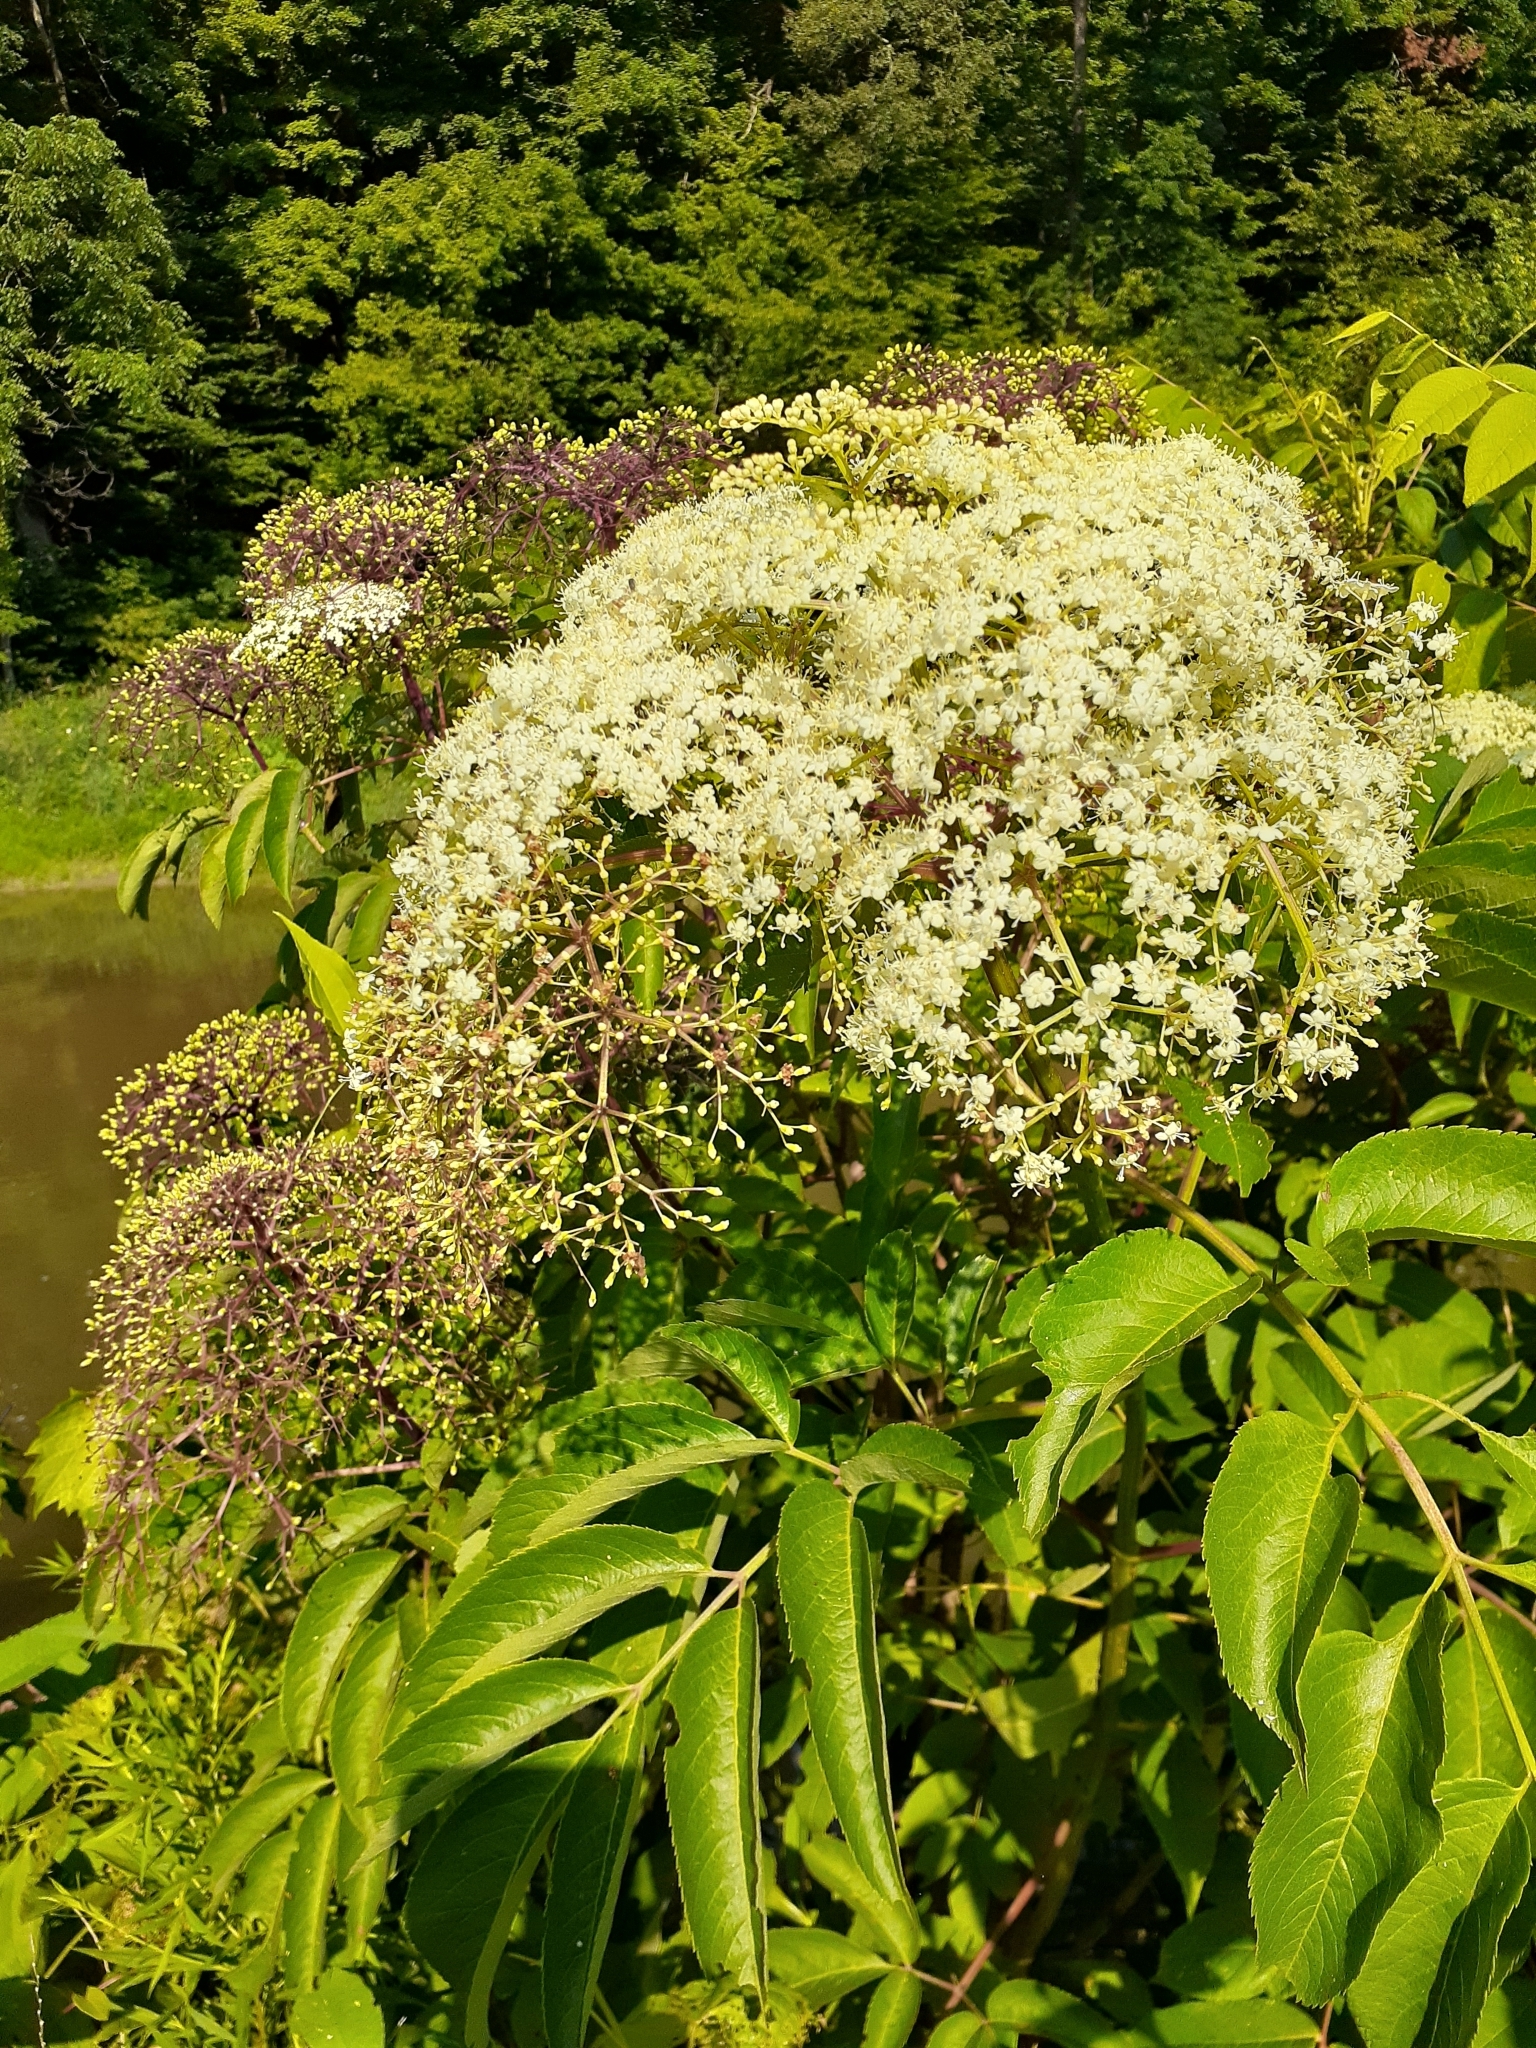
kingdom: Plantae
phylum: Tracheophyta
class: Magnoliopsida
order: Dipsacales
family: Viburnaceae
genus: Sambucus
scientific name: Sambucus canadensis
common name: American elder
